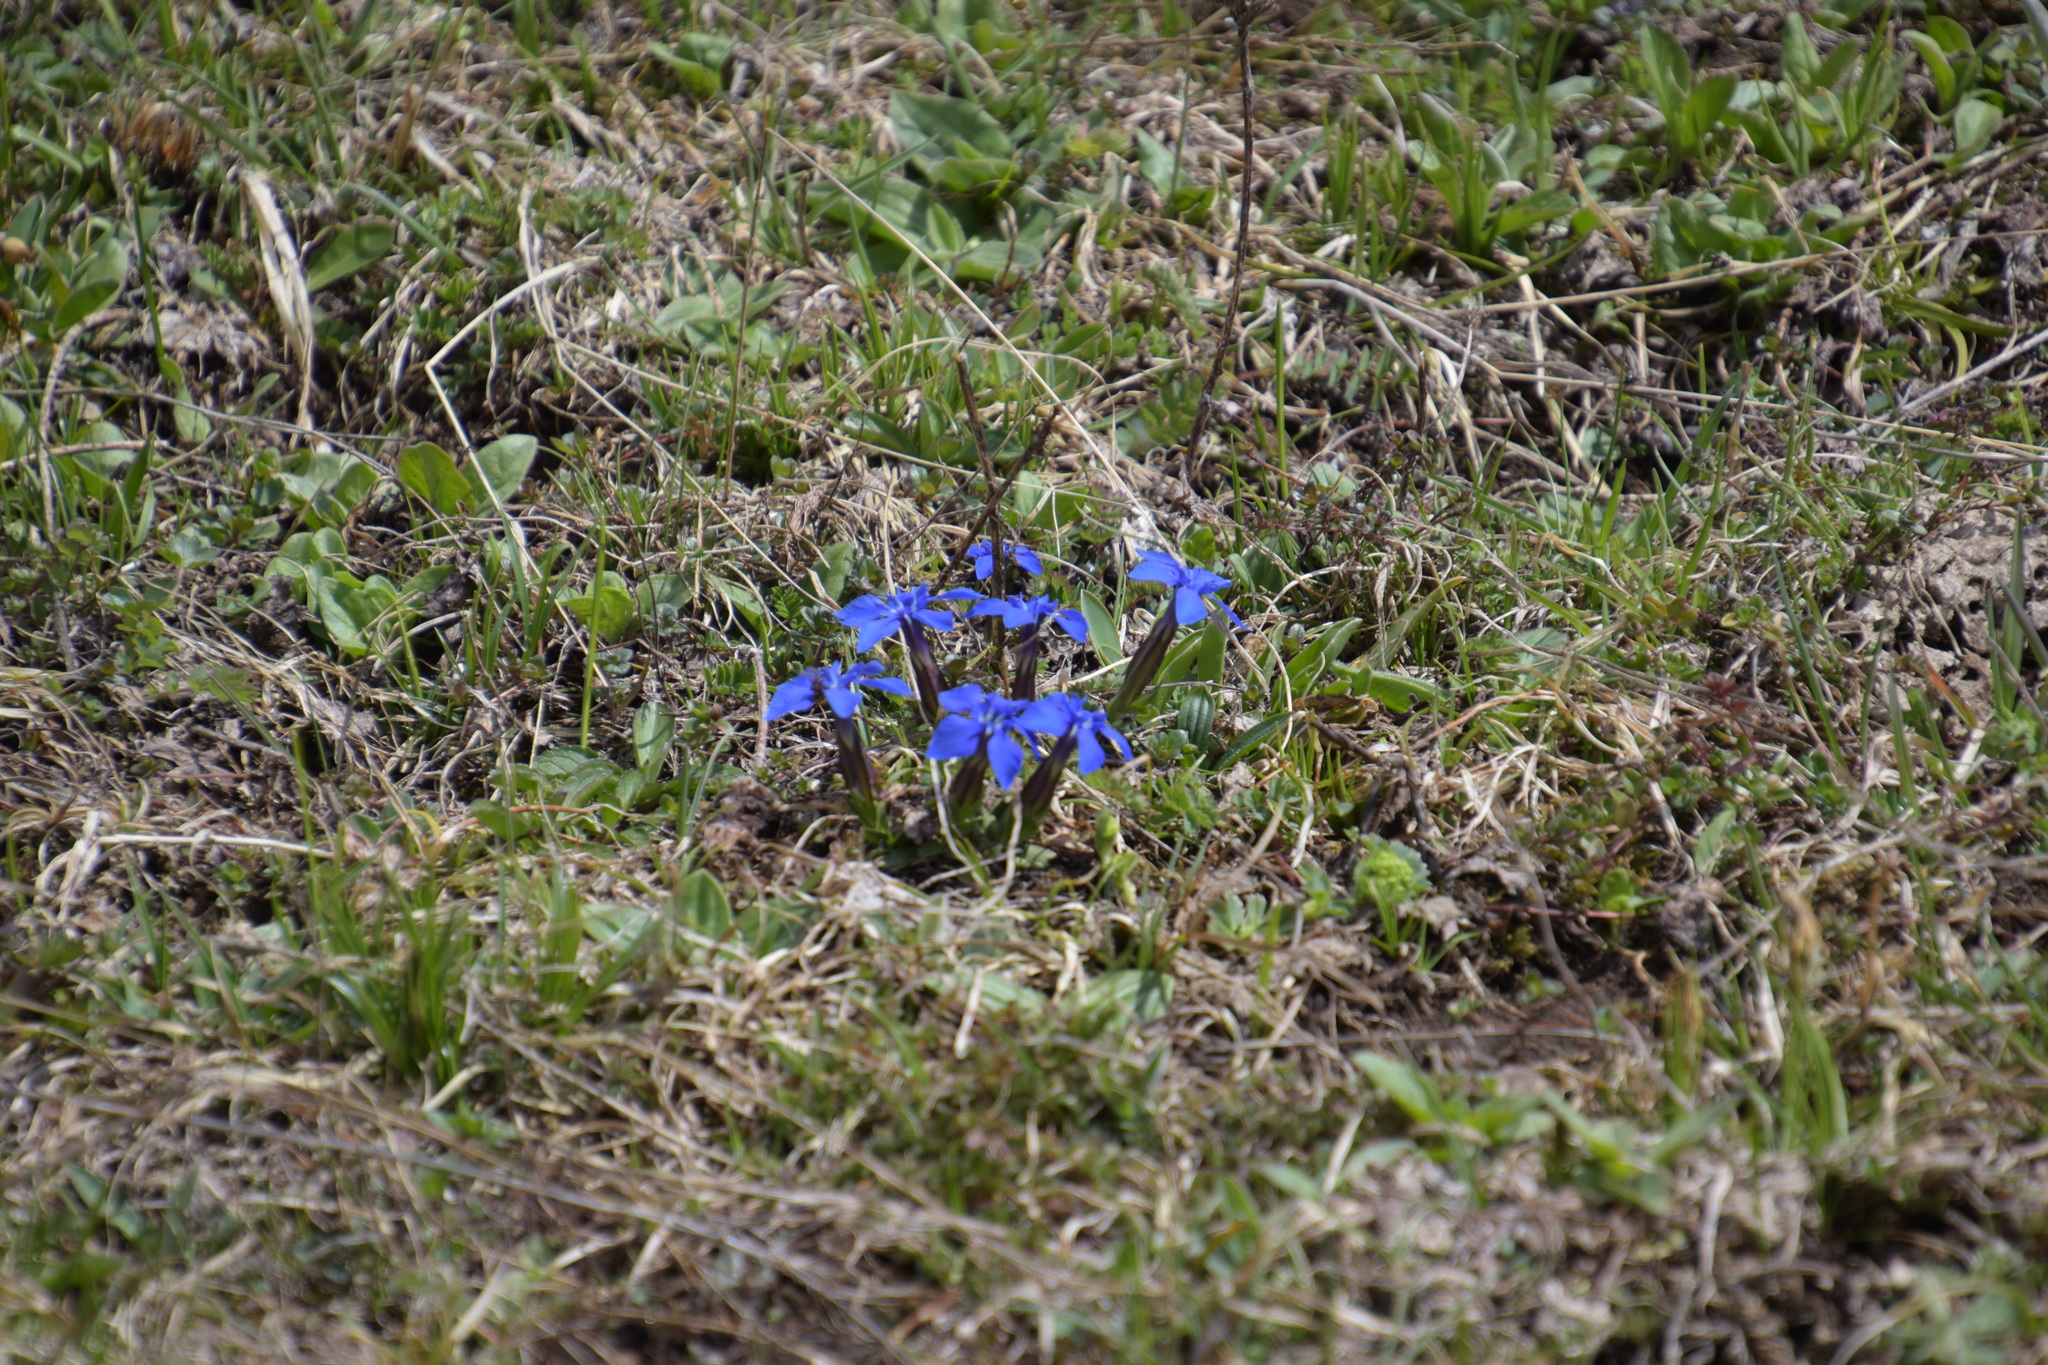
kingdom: Plantae
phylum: Tracheophyta
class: Magnoliopsida
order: Gentianales
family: Gentianaceae
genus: Gentiana
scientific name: Gentiana verna
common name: Spring gentian
